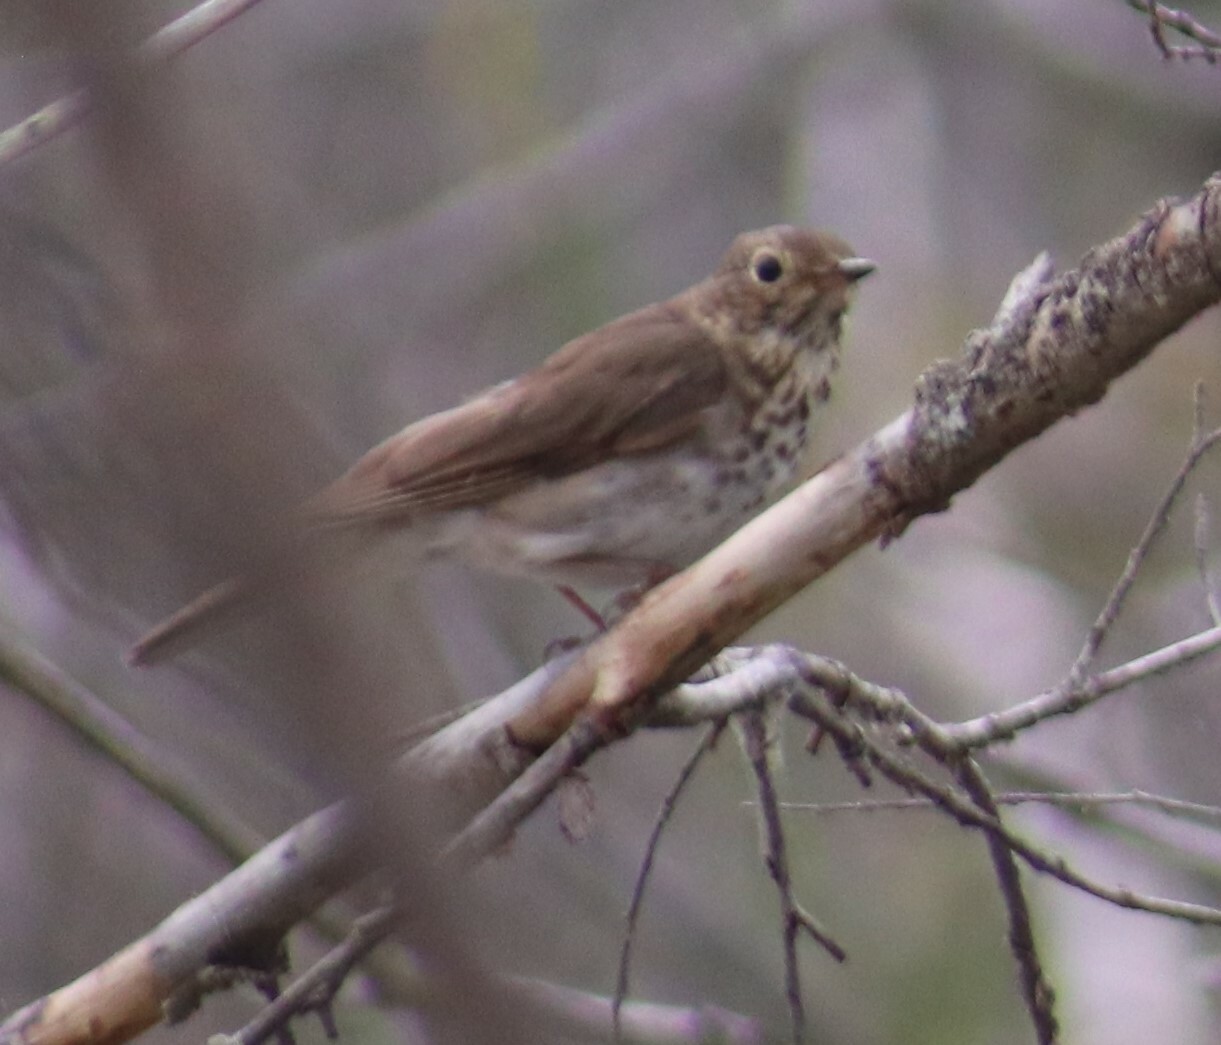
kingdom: Animalia
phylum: Chordata
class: Aves
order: Passeriformes
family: Turdidae
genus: Catharus
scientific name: Catharus ustulatus
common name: Swainson's thrush
